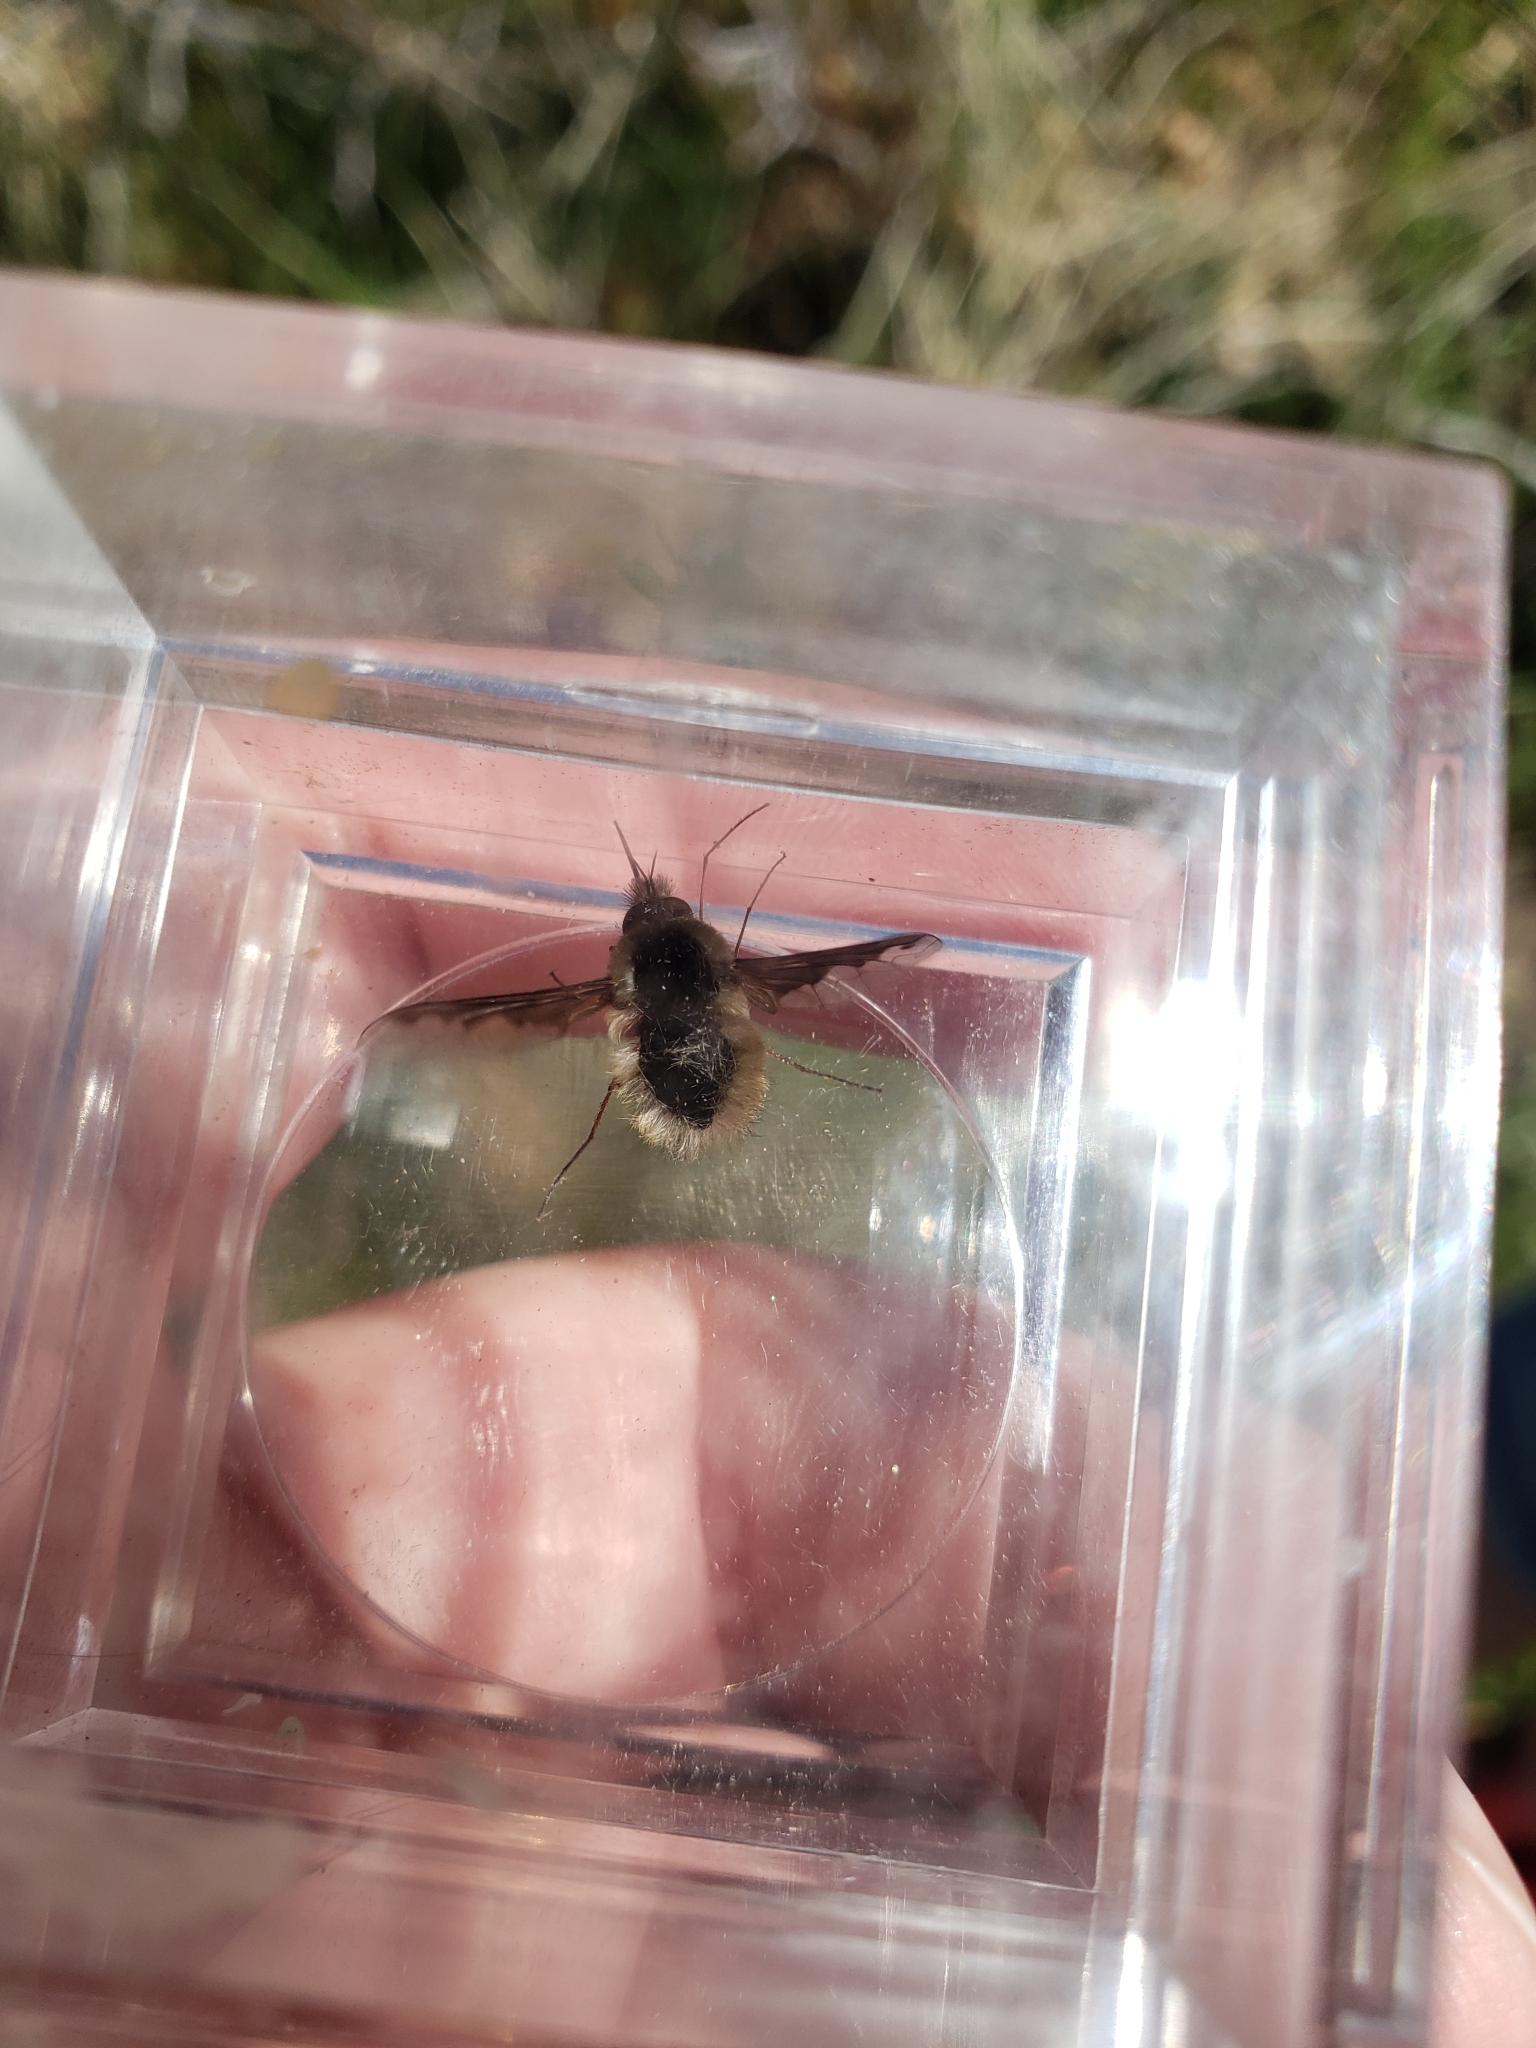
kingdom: Animalia
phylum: Arthropoda
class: Insecta
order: Diptera
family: Bombyliidae
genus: Bombylius
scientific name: Bombylius major
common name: Bee fly
